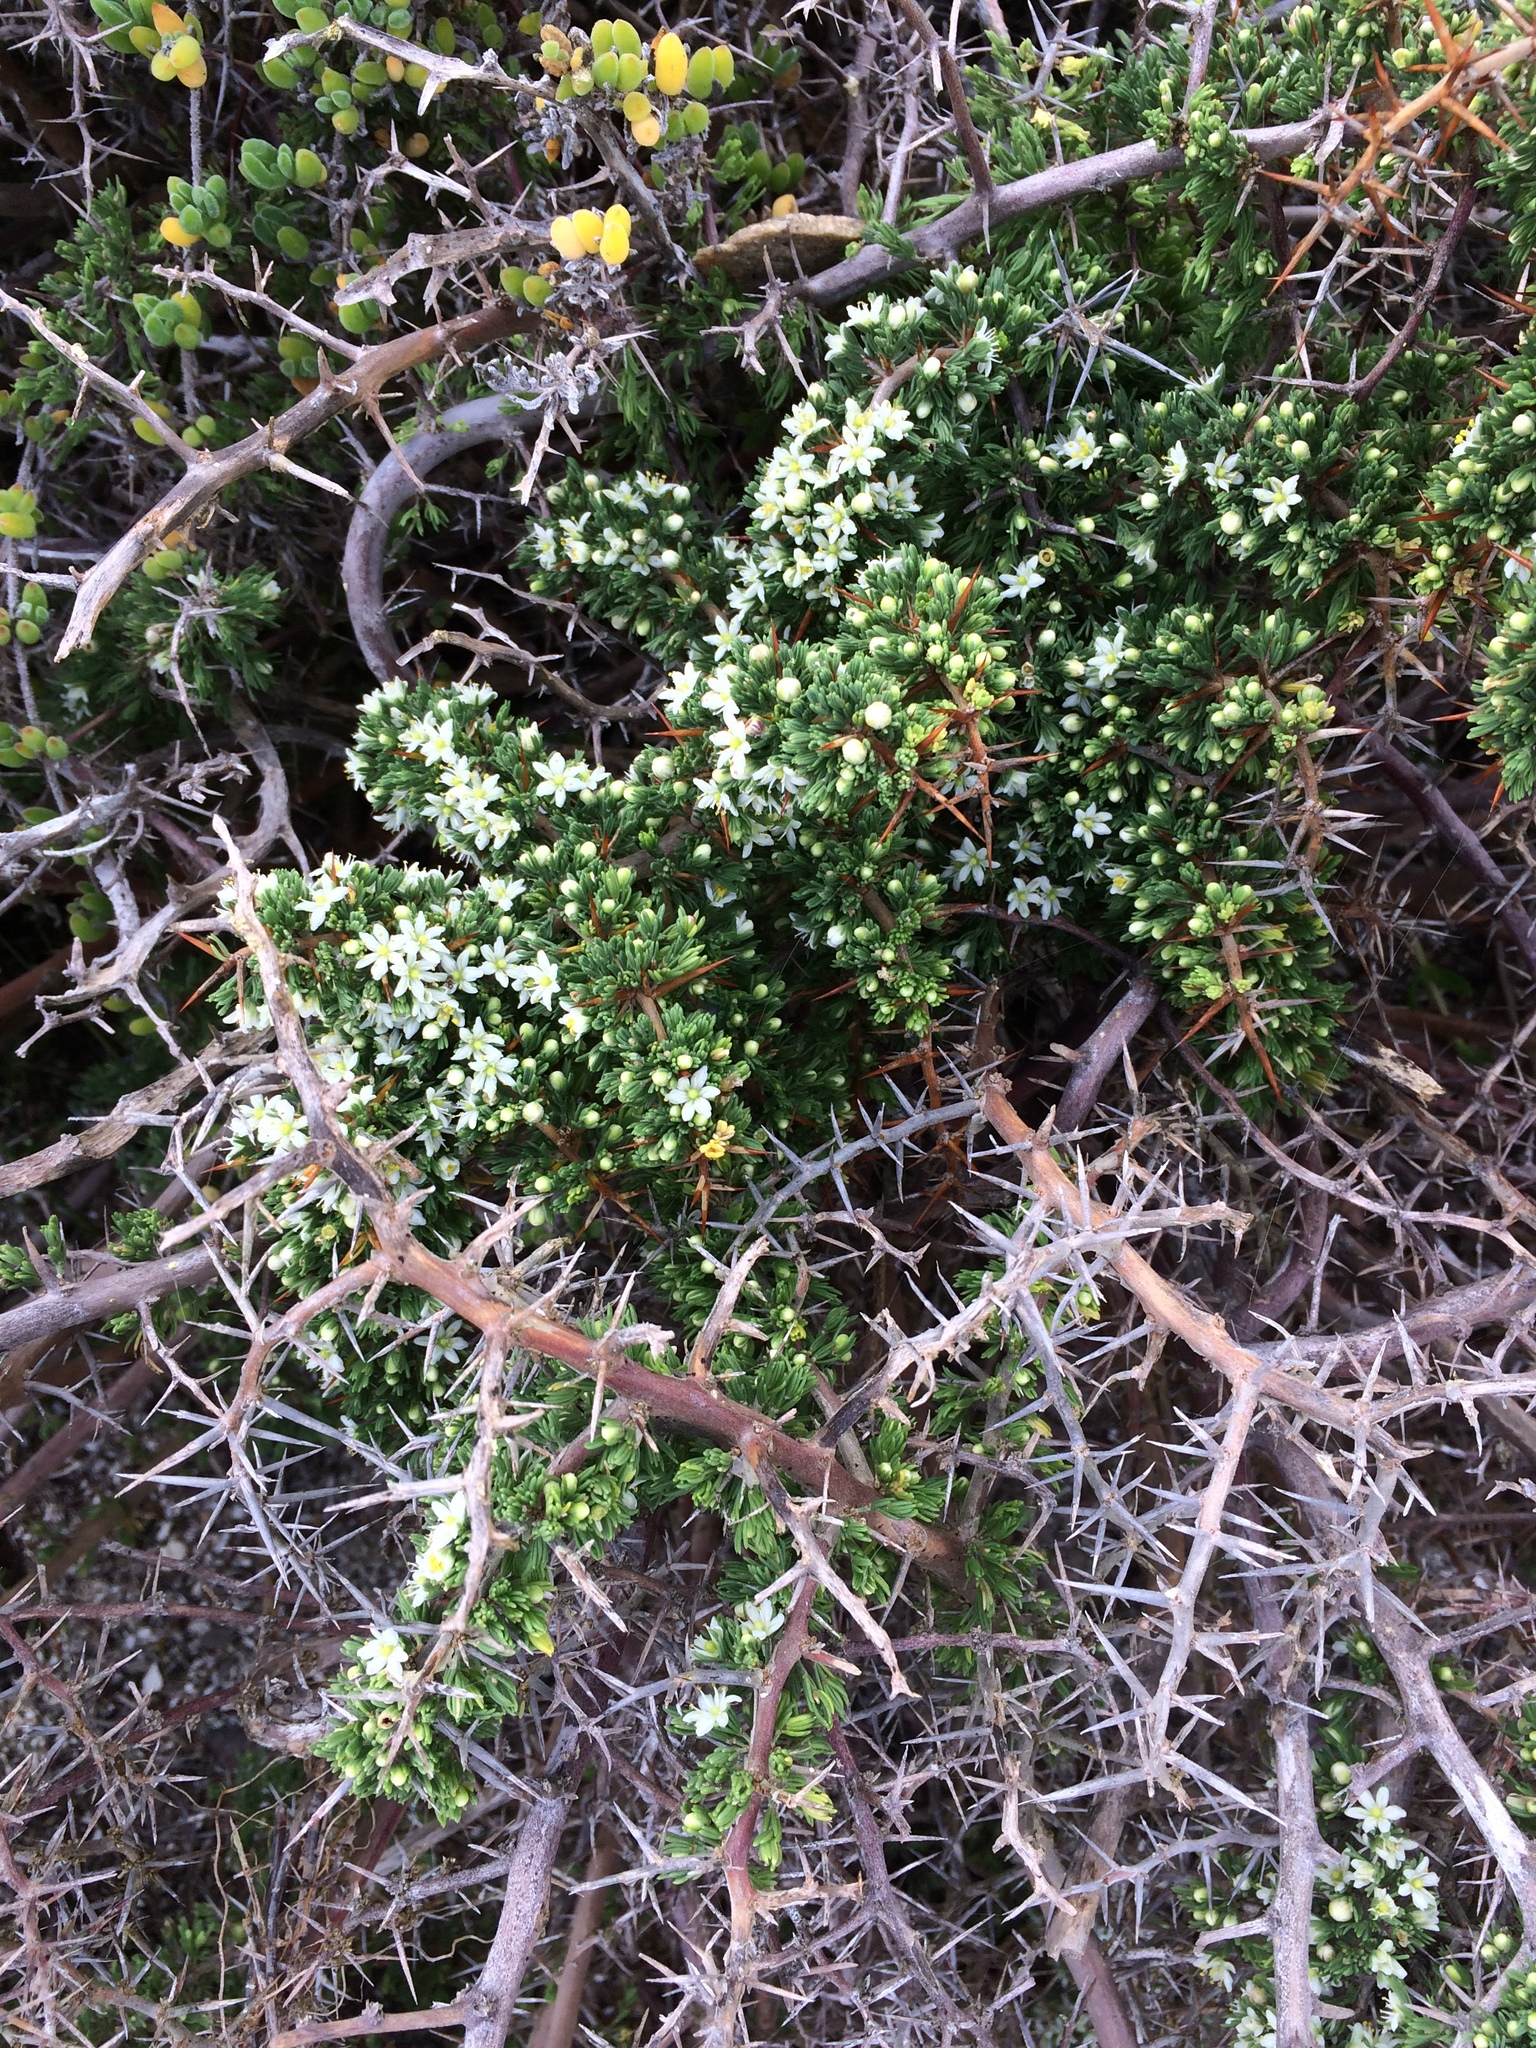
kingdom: Plantae
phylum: Tracheophyta
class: Liliopsida
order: Asparagales
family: Asparagaceae
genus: Asparagus
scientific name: Asparagus capensis
